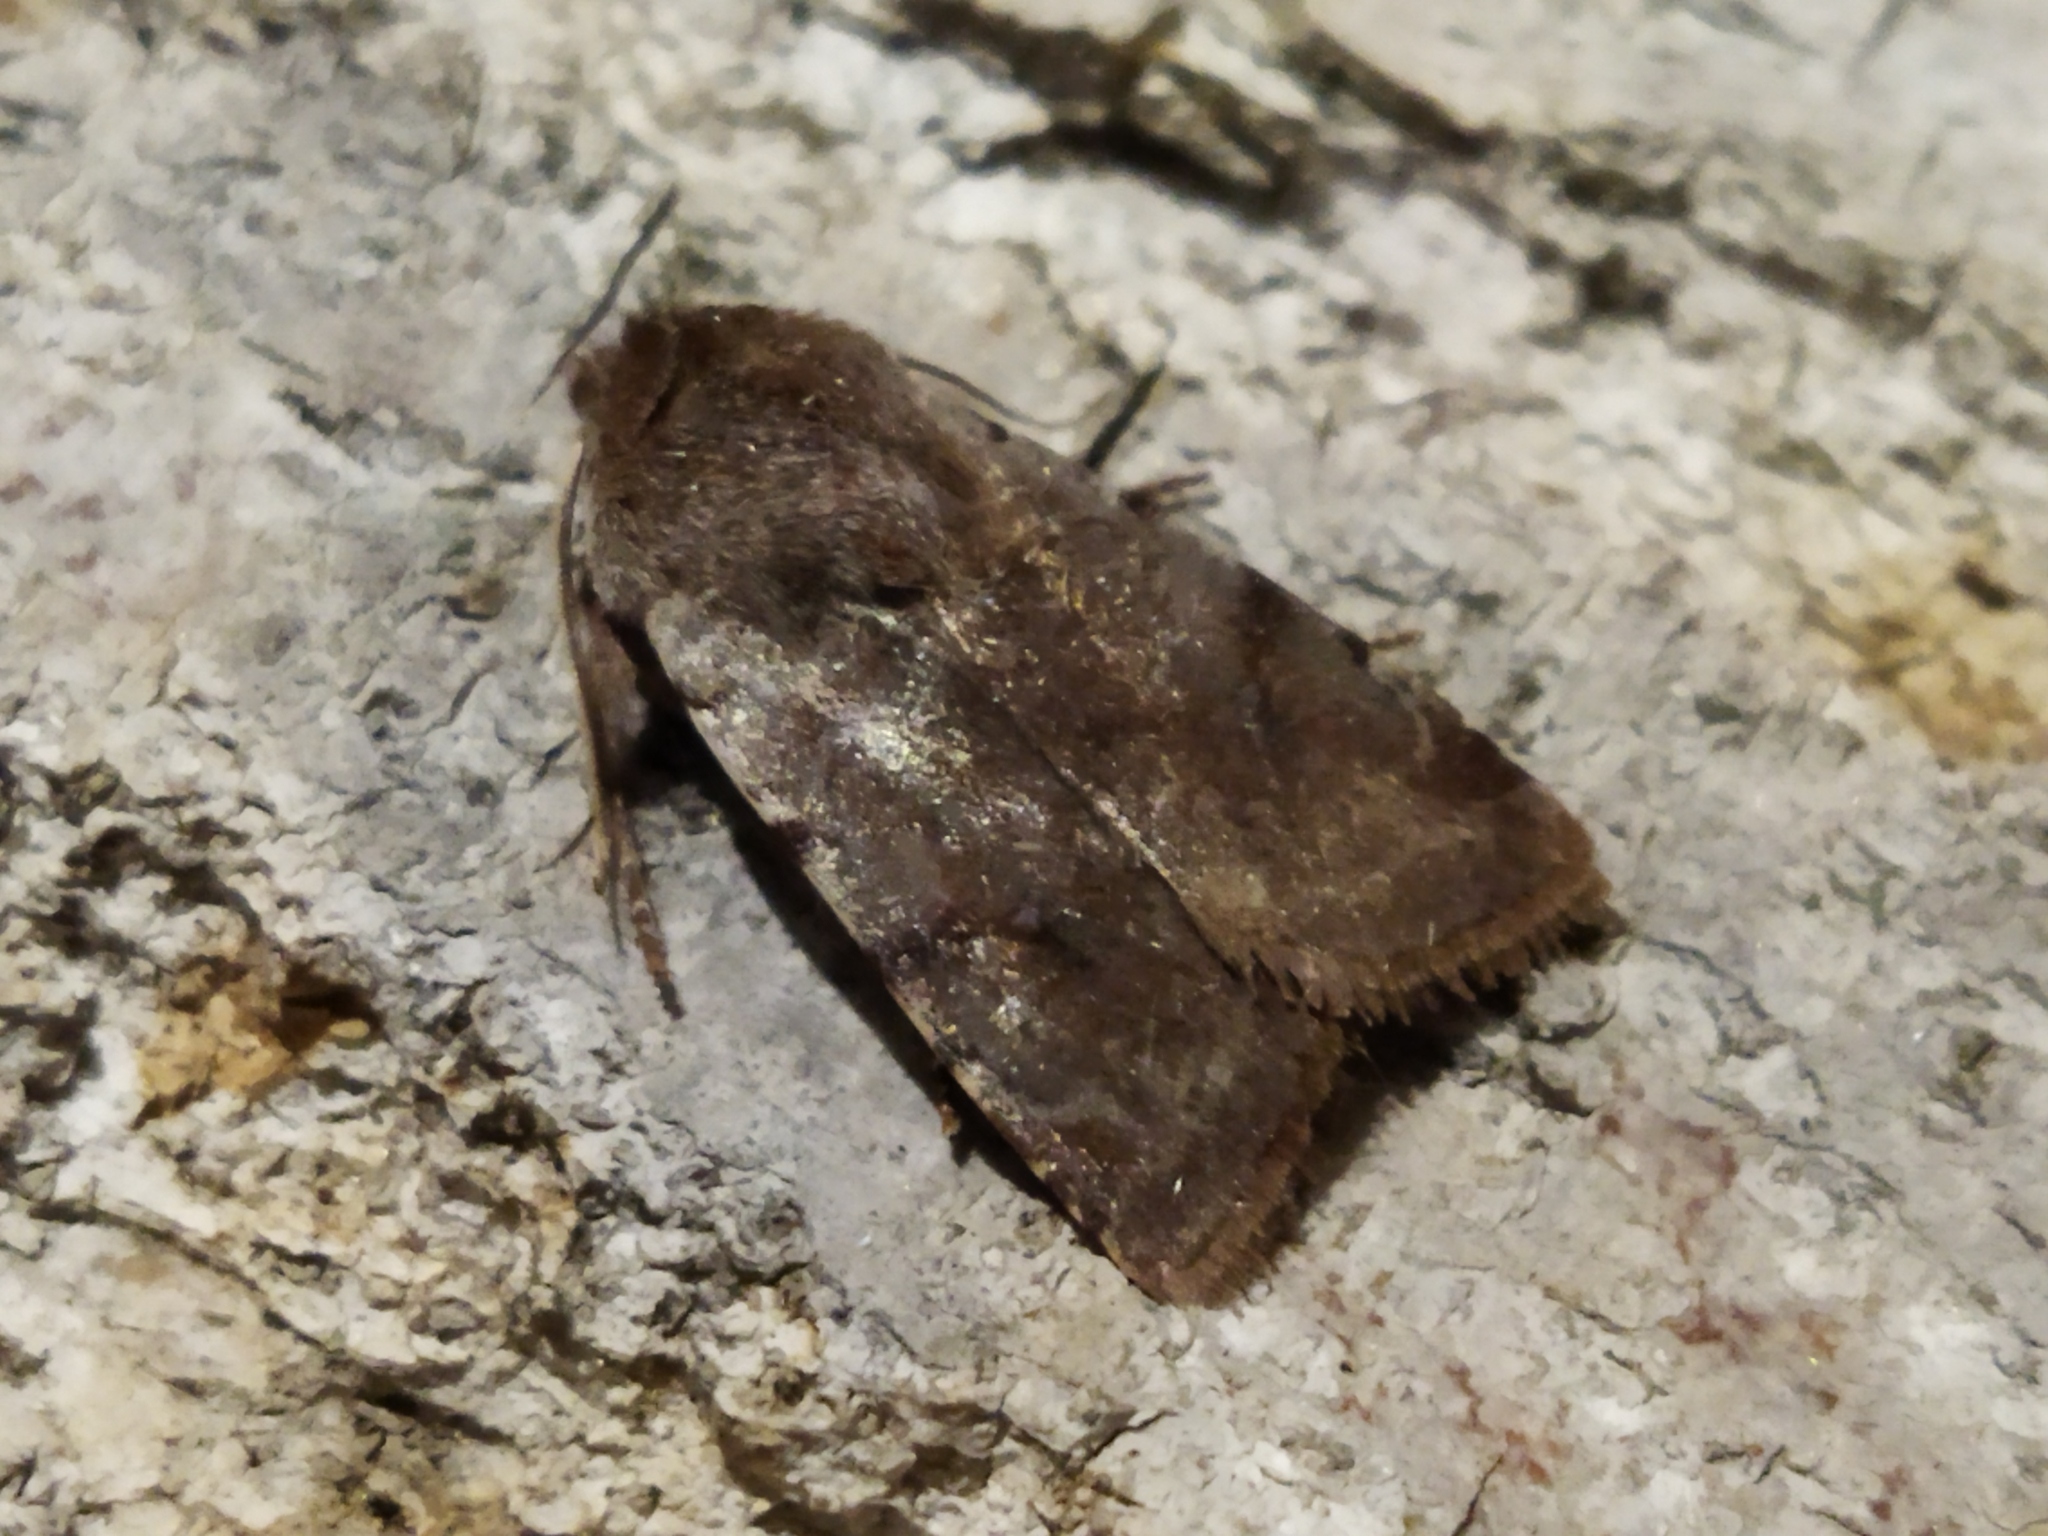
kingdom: Animalia
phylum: Arthropoda
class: Insecta
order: Lepidoptera
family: Noctuidae
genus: Cerastis
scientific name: Cerastis rubricosa
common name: Red chestnut
